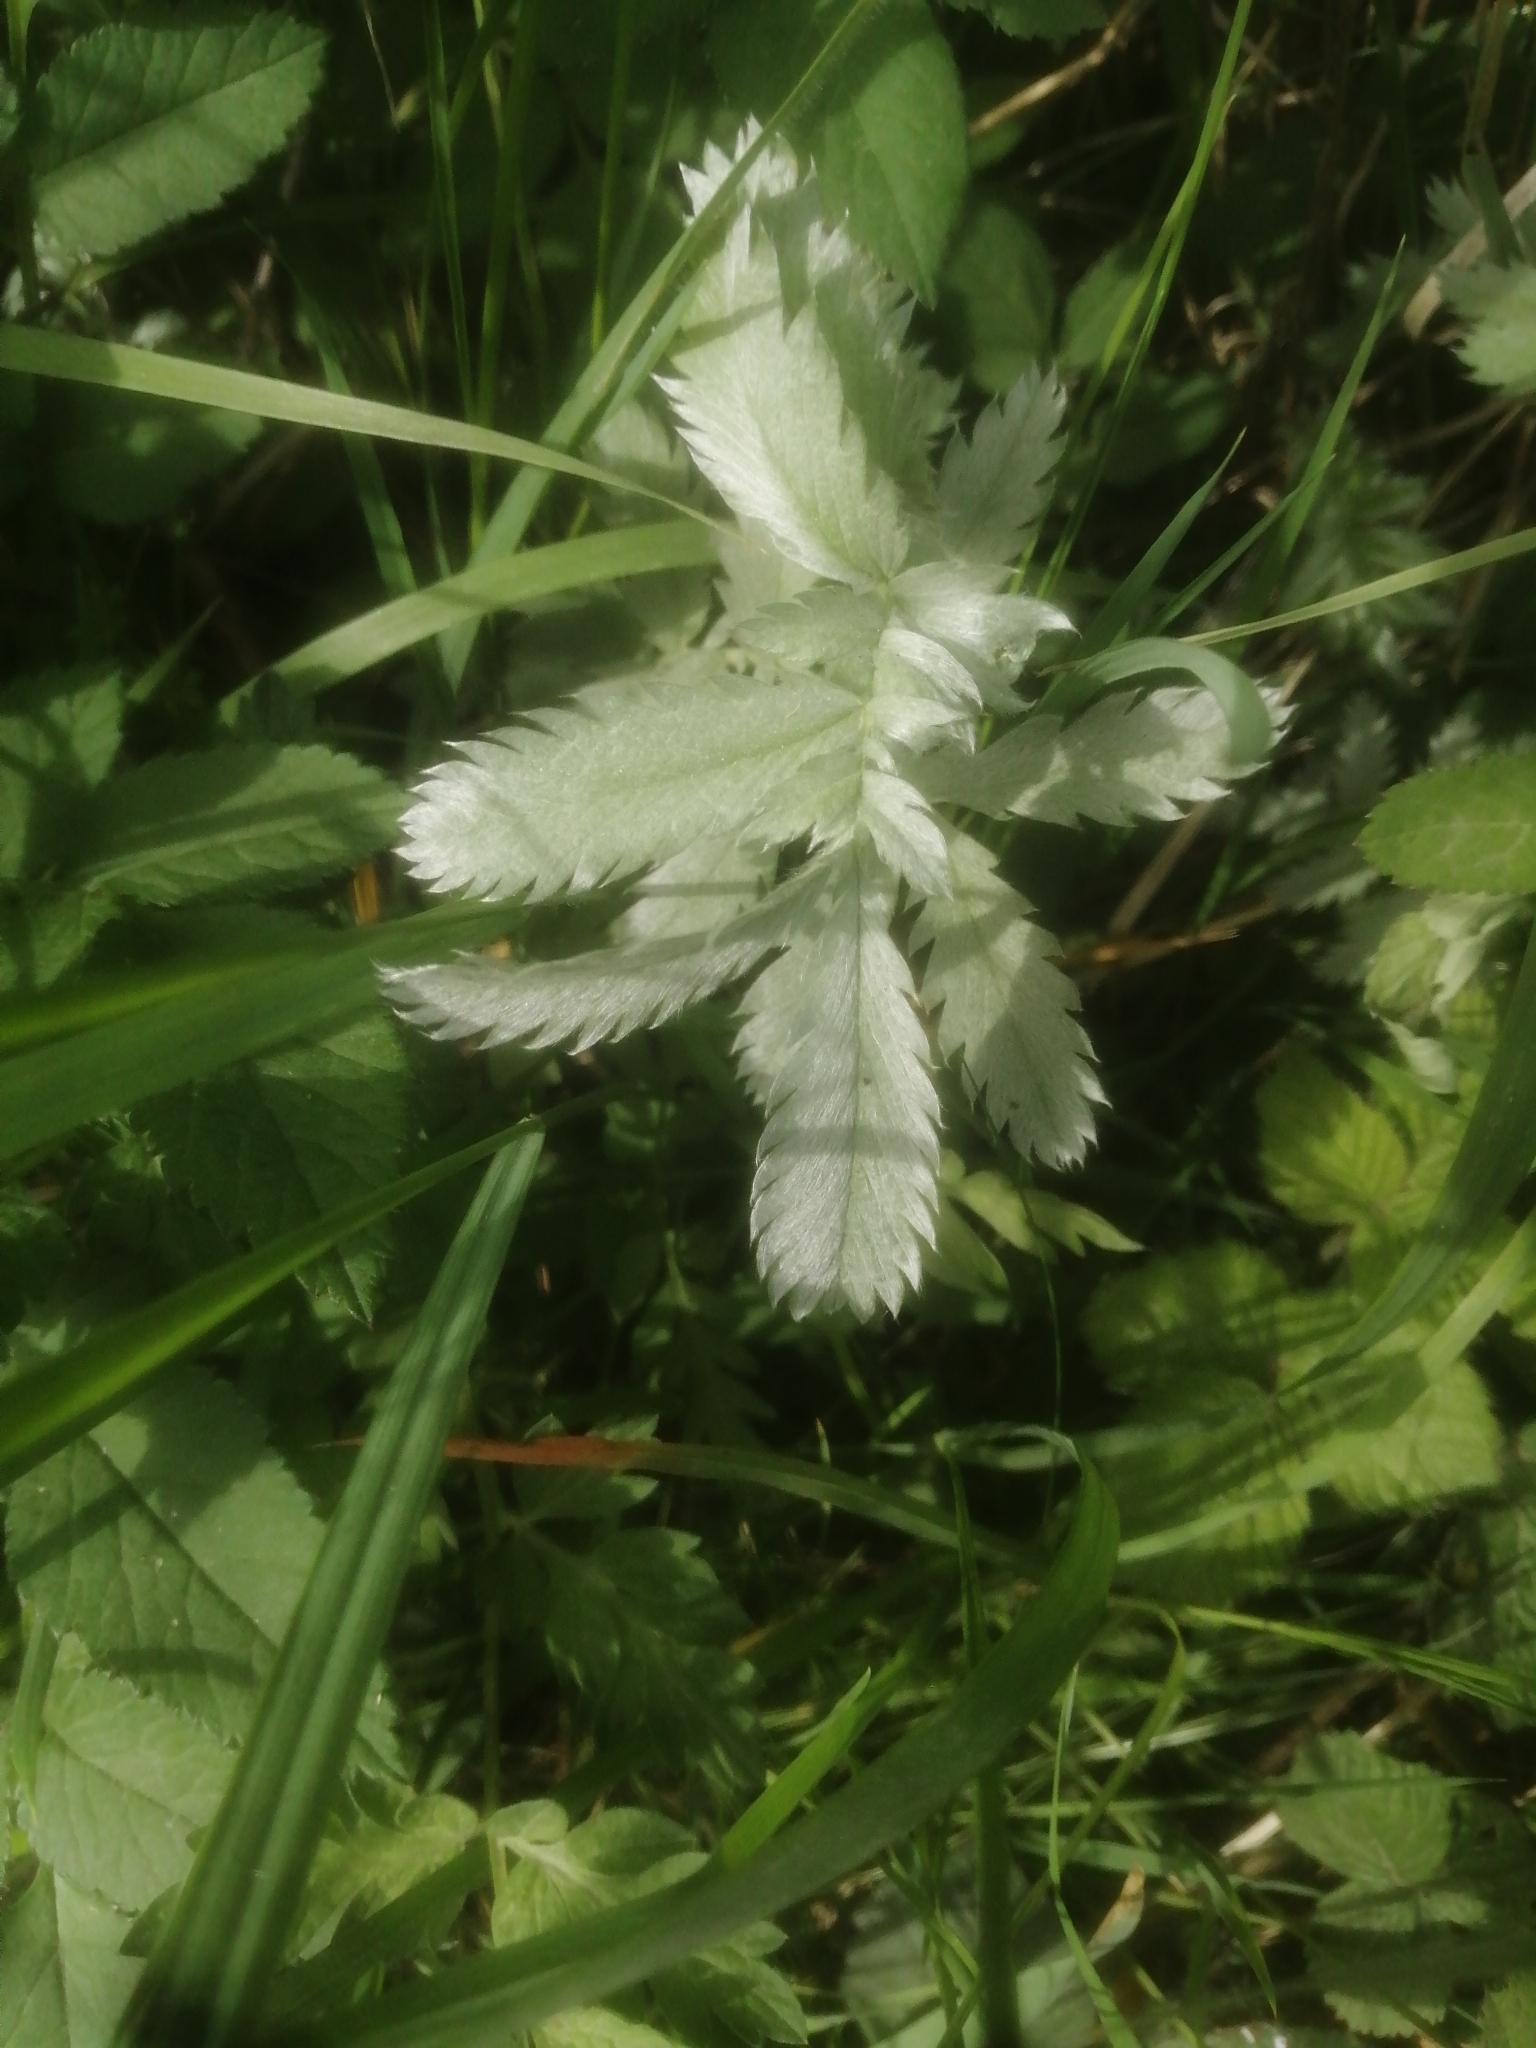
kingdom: Plantae
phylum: Tracheophyta
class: Magnoliopsida
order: Rosales
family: Rosaceae
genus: Argentina
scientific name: Argentina anserina
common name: Common silverweed
